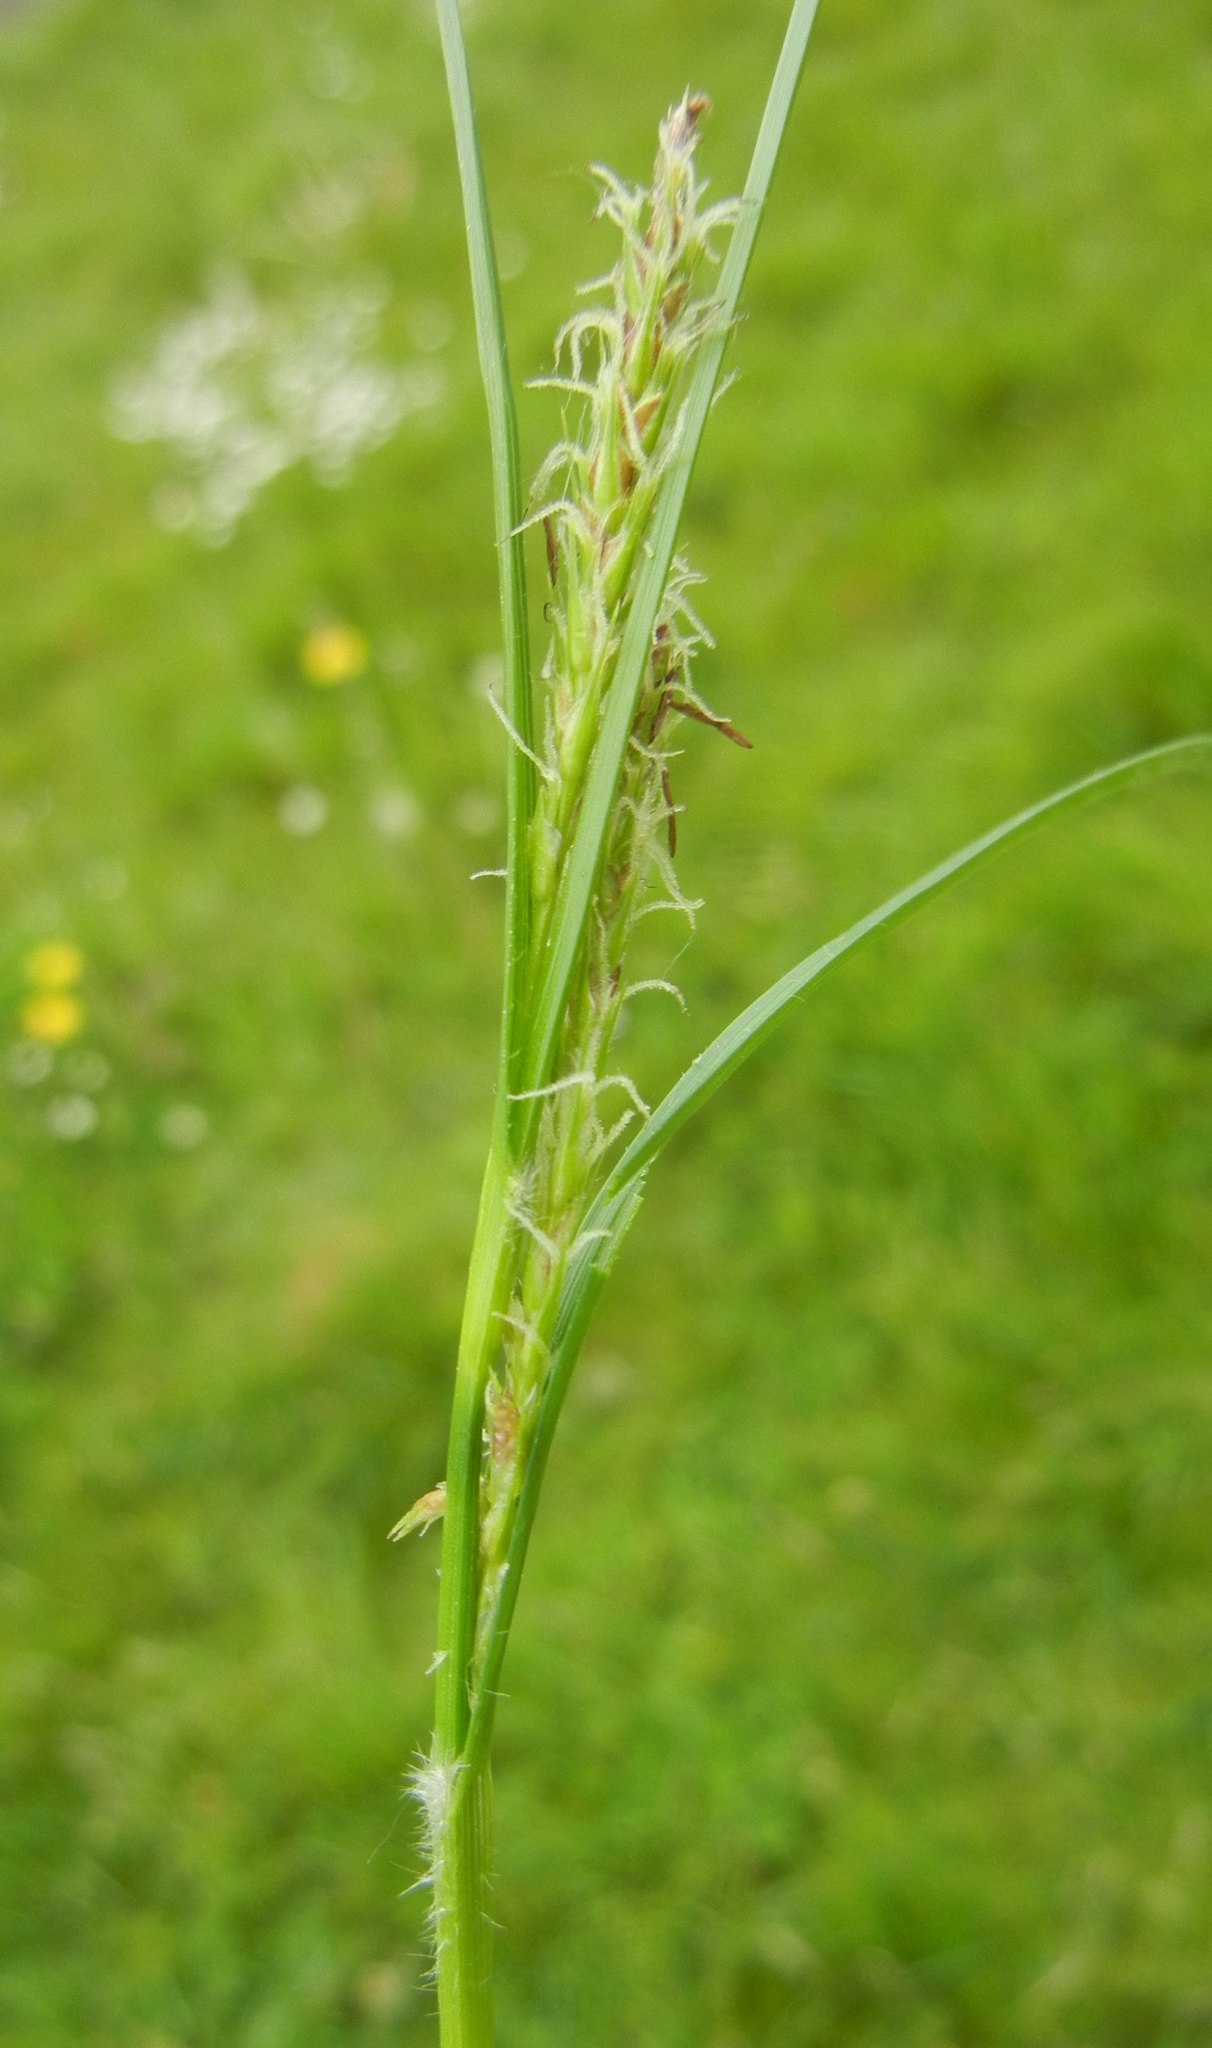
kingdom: Plantae
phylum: Tracheophyta
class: Liliopsida
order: Poales
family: Cyperaceae
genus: Carex
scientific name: Carex hirta
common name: Hairy sedge
